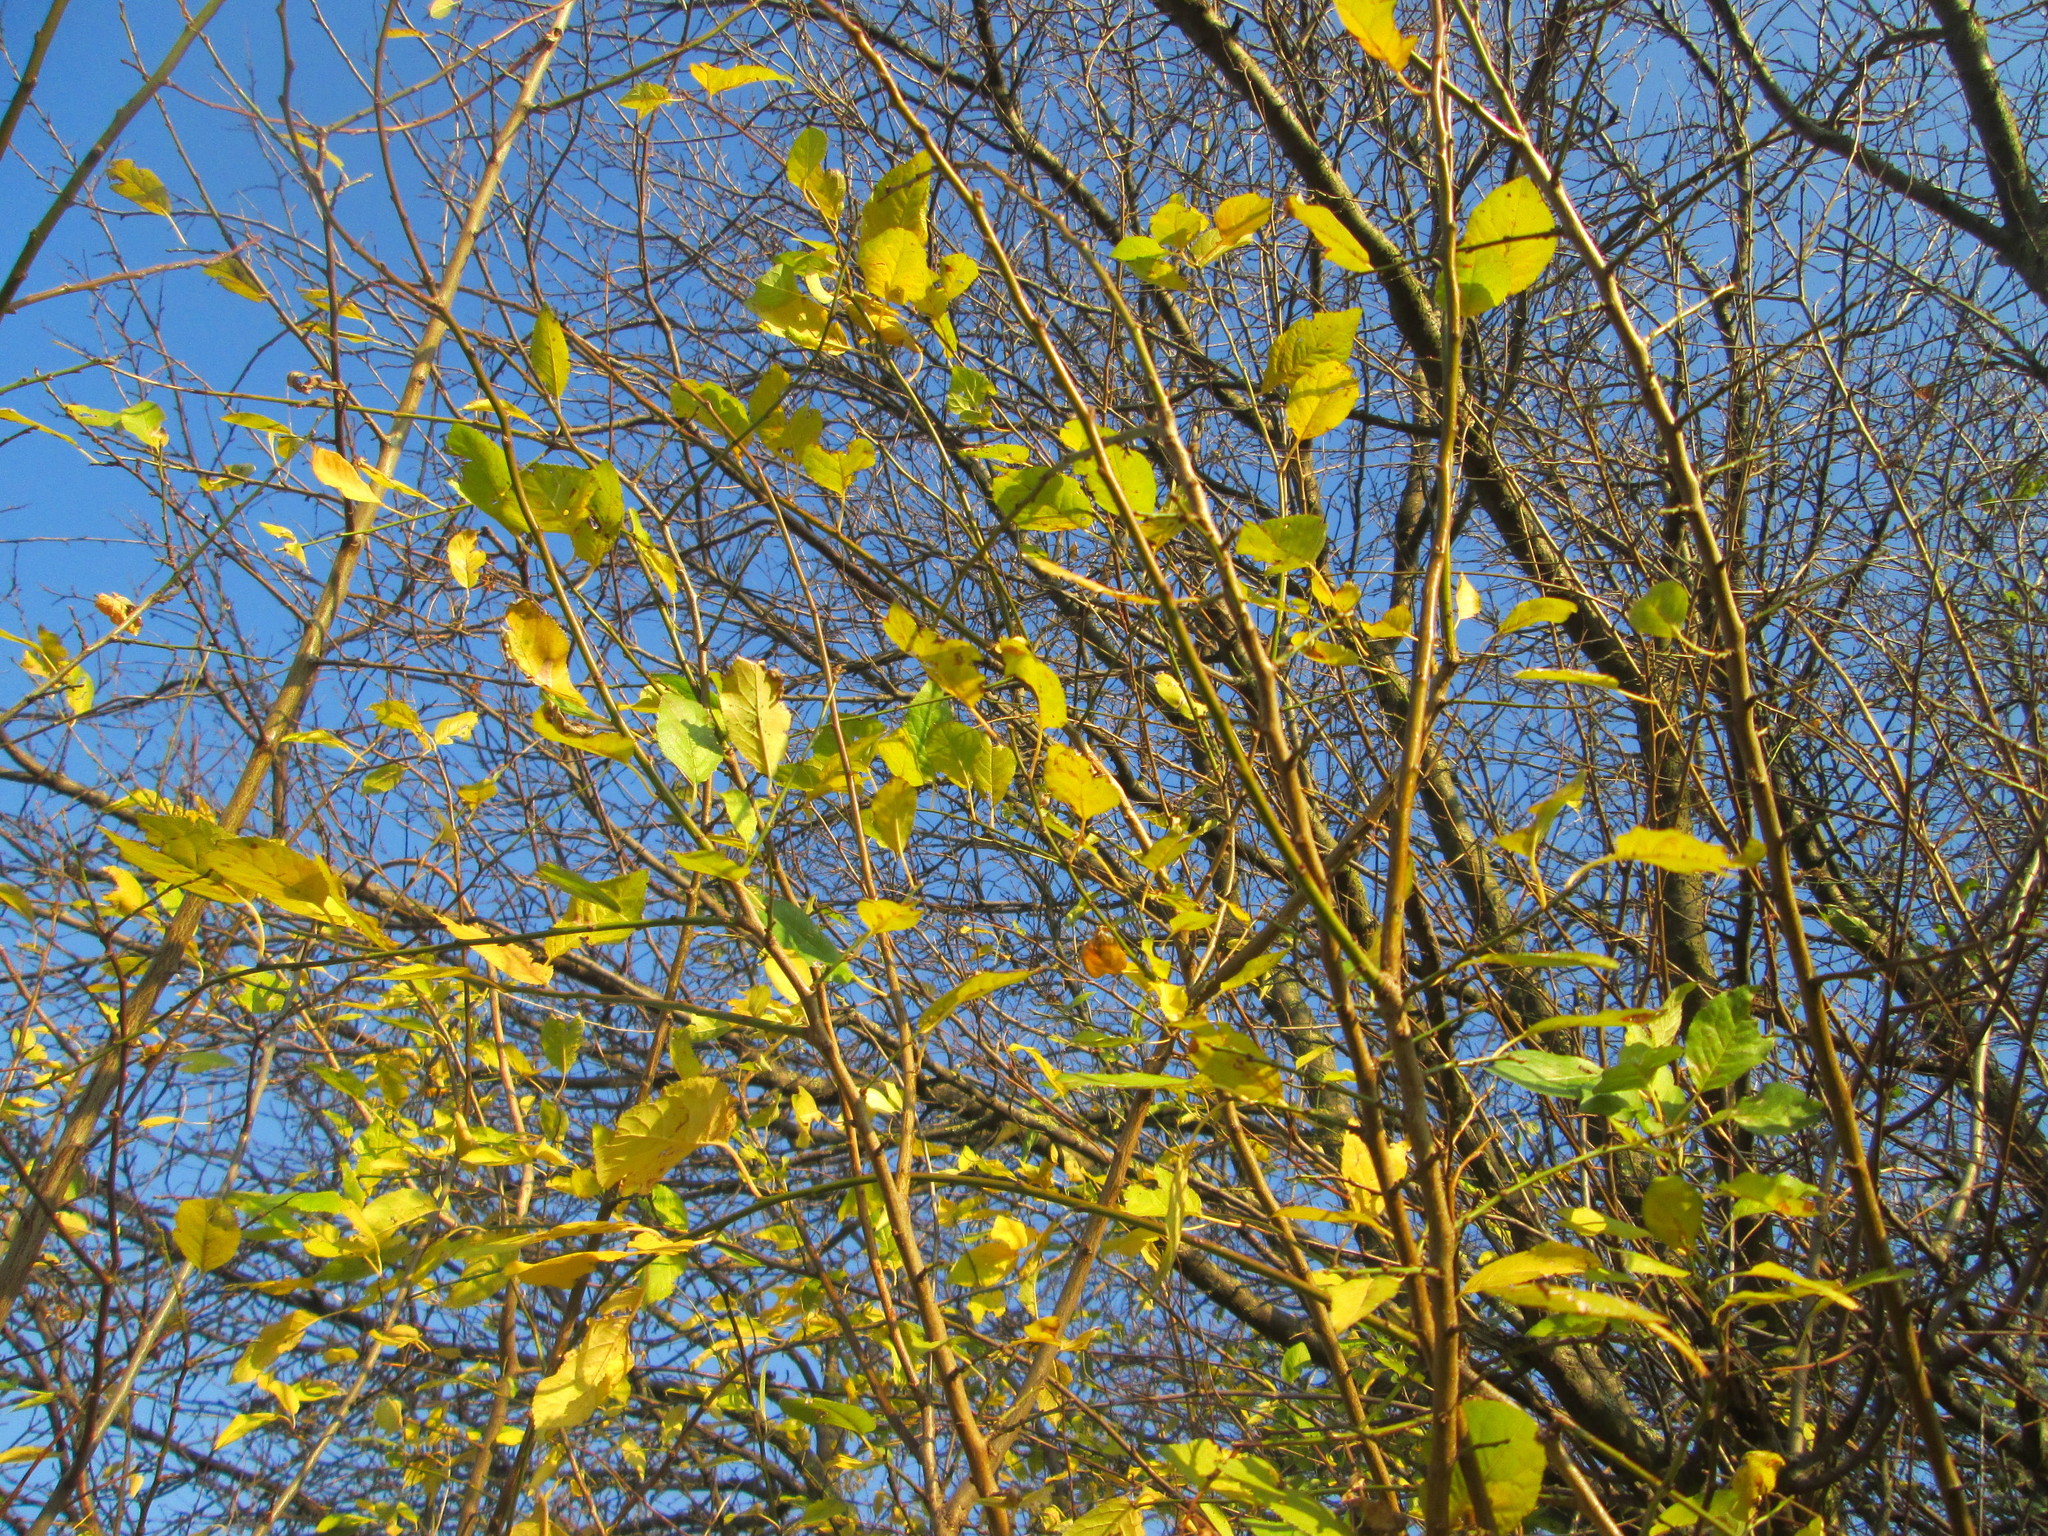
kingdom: Plantae
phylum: Tracheophyta
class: Magnoliopsida
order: Rosales
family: Rosaceae
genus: Prunus
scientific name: Prunus cerasifera
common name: Cherry plum
